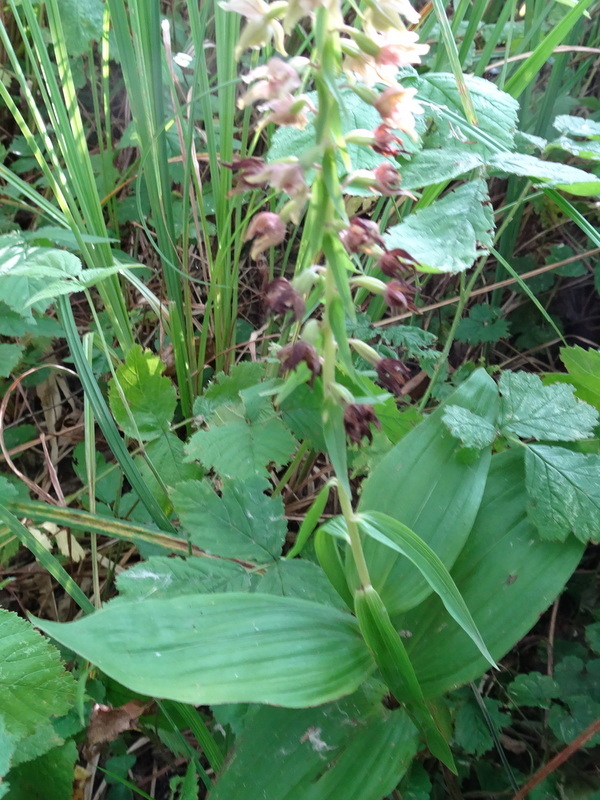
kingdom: Plantae
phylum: Tracheophyta
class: Liliopsida
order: Asparagales
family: Orchidaceae
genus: Epipactis
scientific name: Epipactis helleborine
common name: Broad-leaved helleborine
